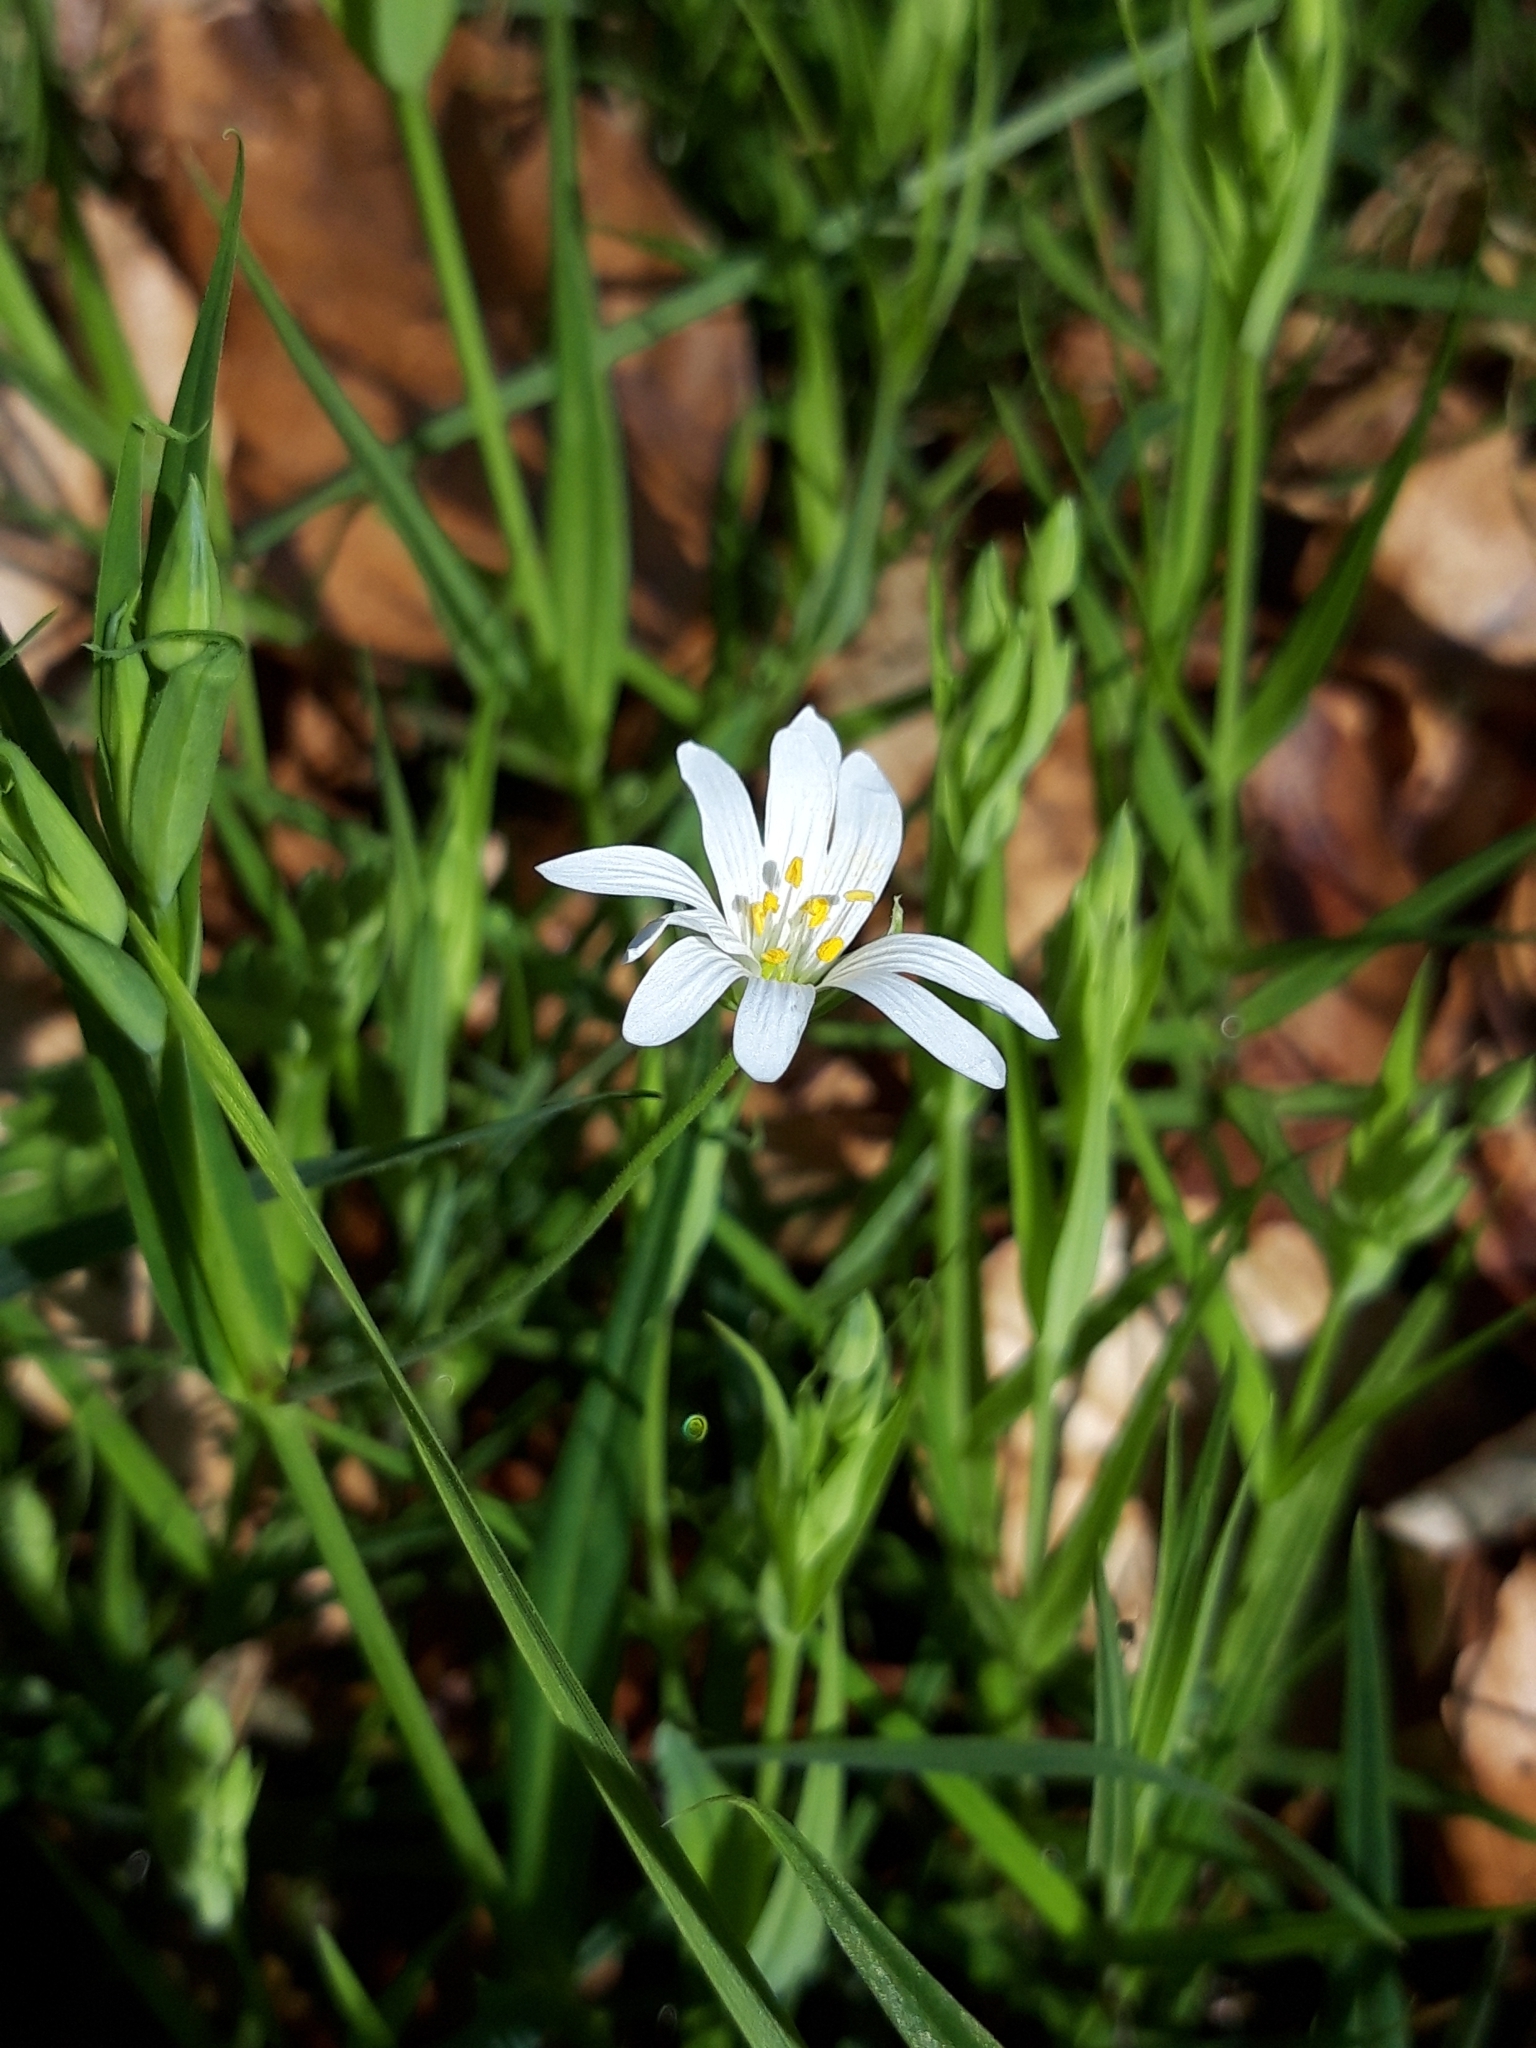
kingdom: Plantae
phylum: Tracheophyta
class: Magnoliopsida
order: Caryophyllales
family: Caryophyllaceae
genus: Rabelera
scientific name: Rabelera holostea
